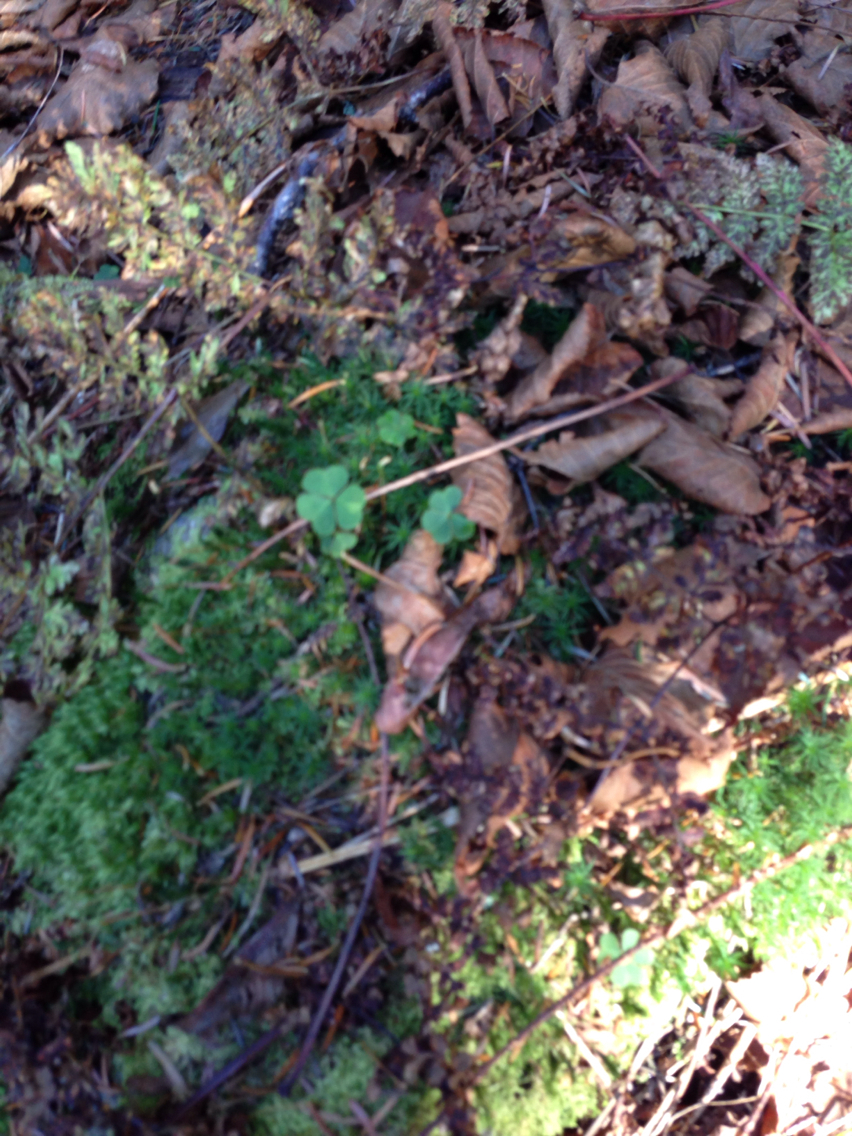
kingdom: Plantae
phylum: Tracheophyta
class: Magnoliopsida
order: Oxalidales
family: Oxalidaceae
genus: Oxalis
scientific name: Oxalis
